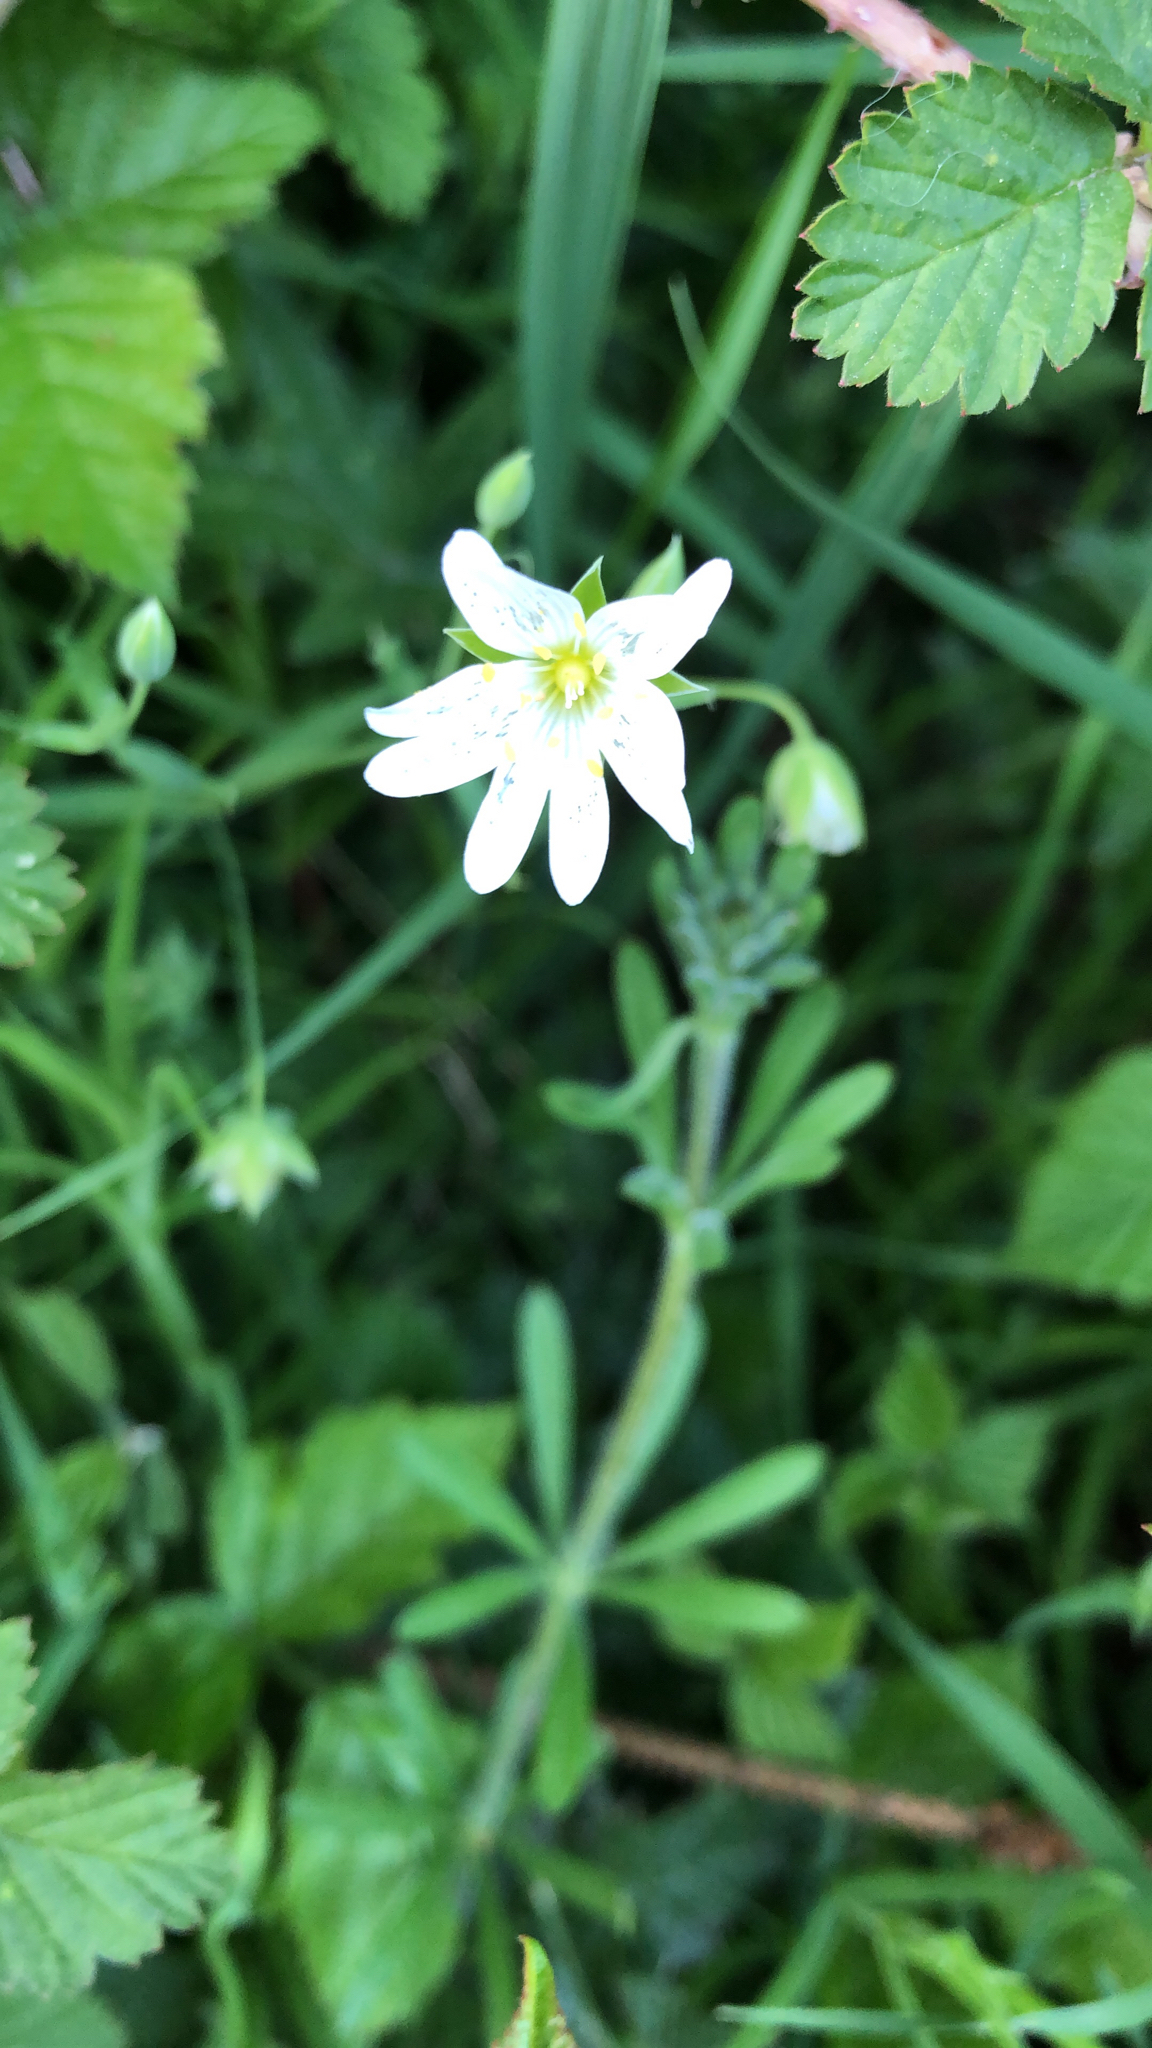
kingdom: Plantae
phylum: Tracheophyta
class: Magnoliopsida
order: Caryophyllales
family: Caryophyllaceae
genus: Rabelera
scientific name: Rabelera holostea
